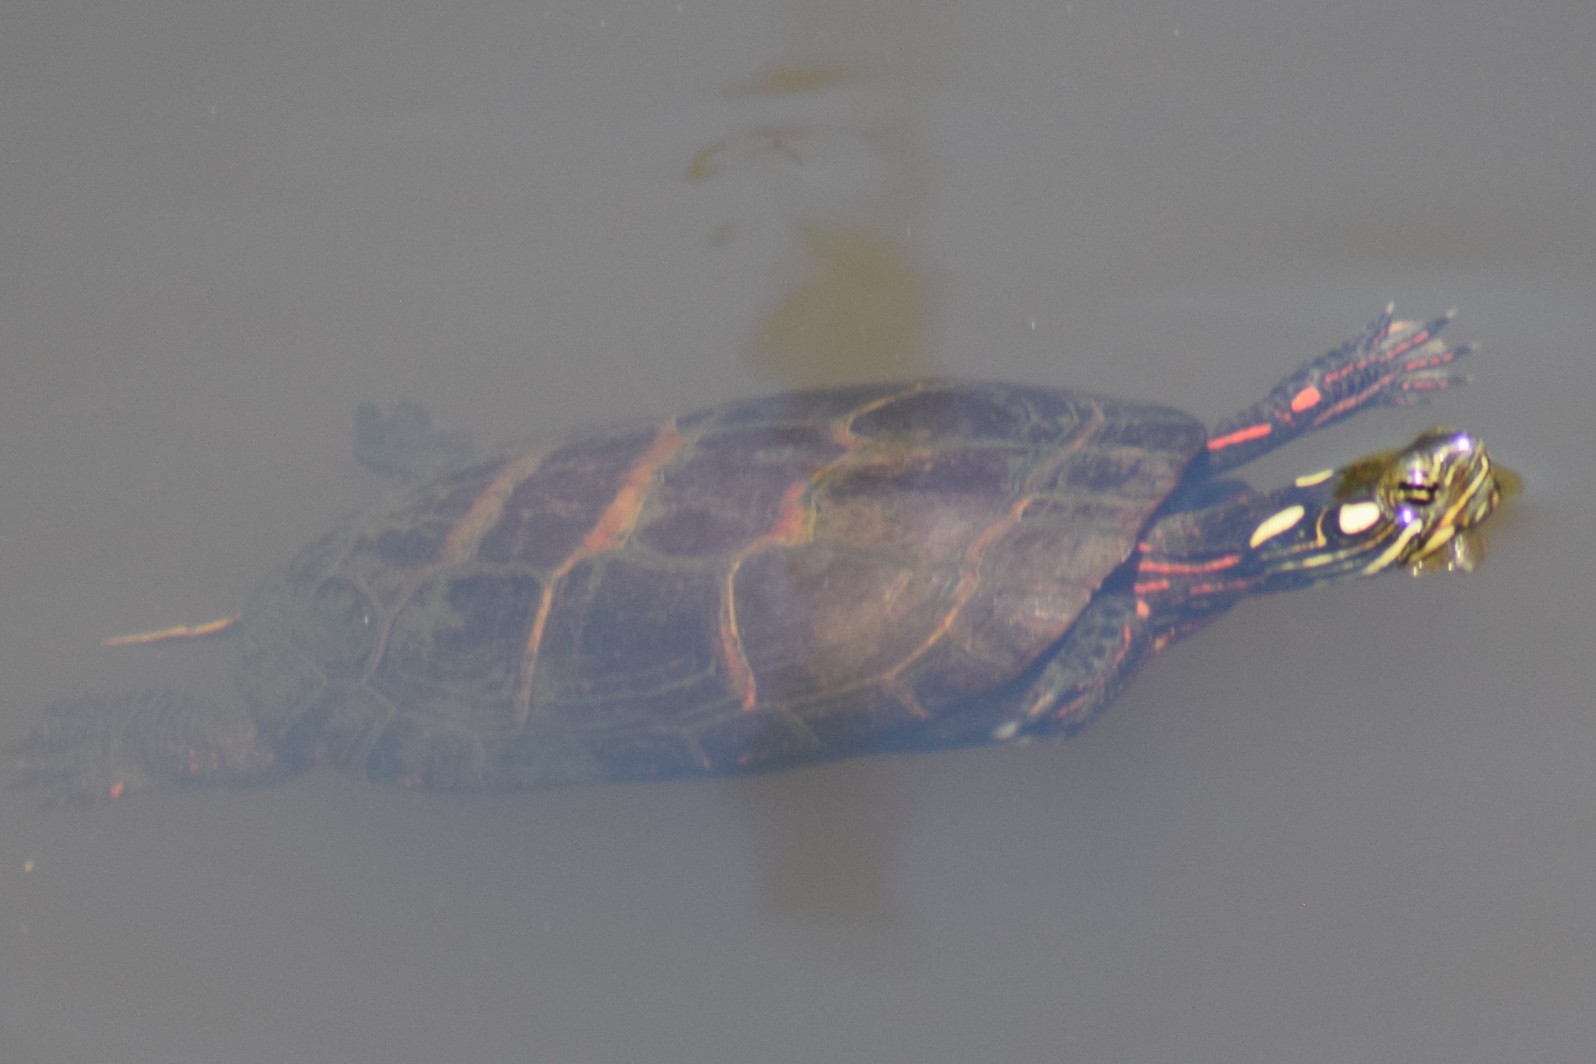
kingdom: Animalia
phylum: Chordata
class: Testudines
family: Emydidae
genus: Chrysemys
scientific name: Chrysemys picta
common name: Painted turtle
